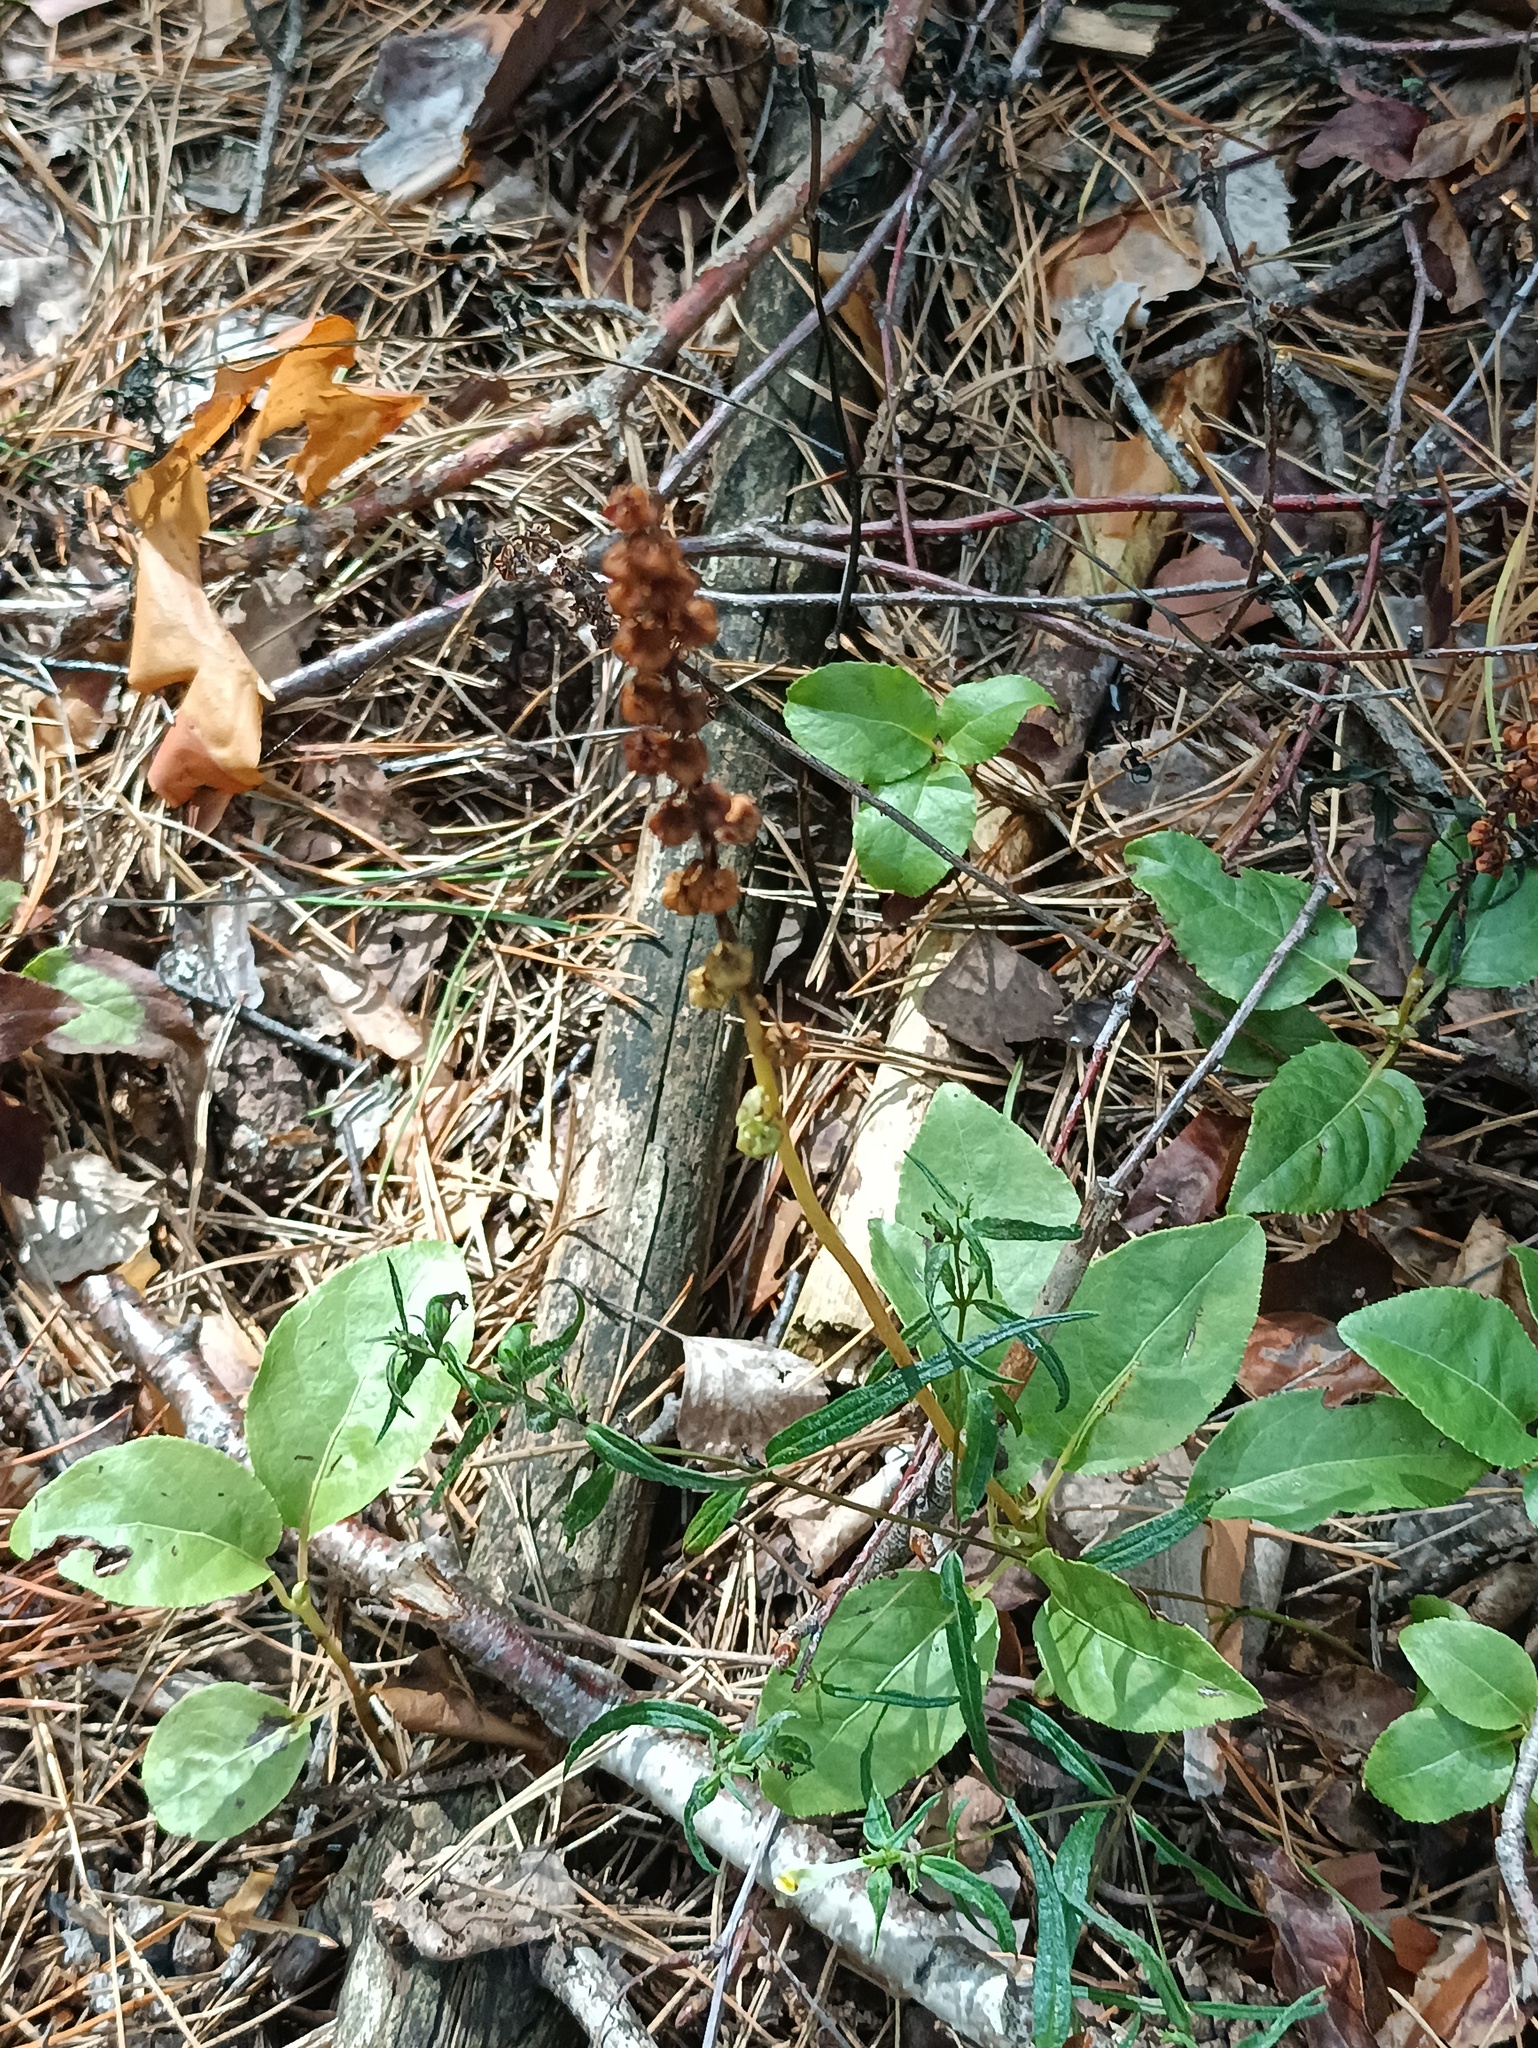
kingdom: Plantae
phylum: Tracheophyta
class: Magnoliopsida
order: Ericales
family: Ericaceae
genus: Orthilia
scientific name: Orthilia secunda
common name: One-sided orthilia
